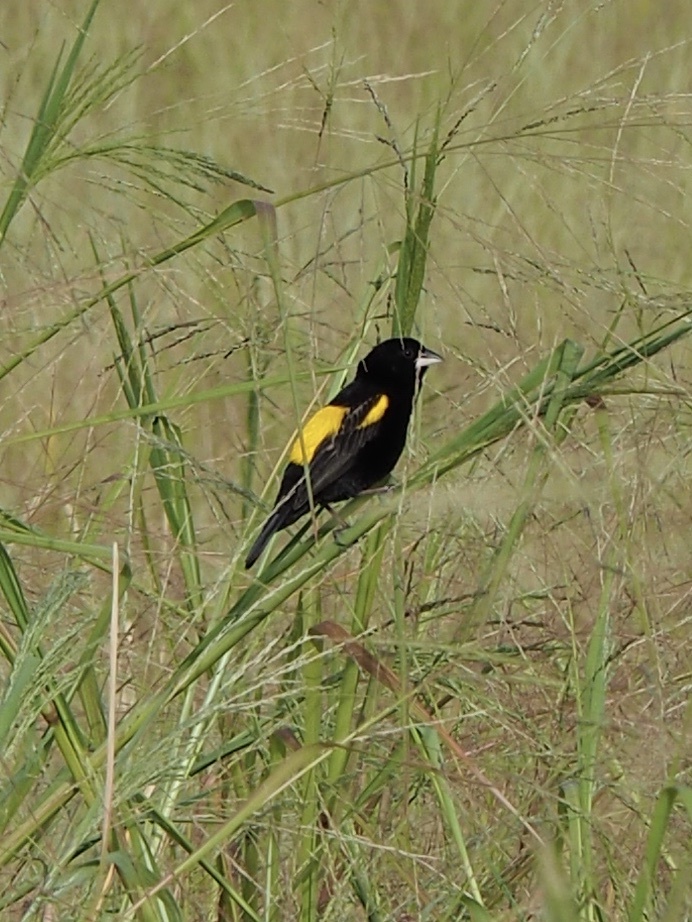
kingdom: Animalia
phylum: Chordata
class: Aves
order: Passeriformes
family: Ploceidae
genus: Euplectes
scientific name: Euplectes capensis
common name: Yellow bishop
